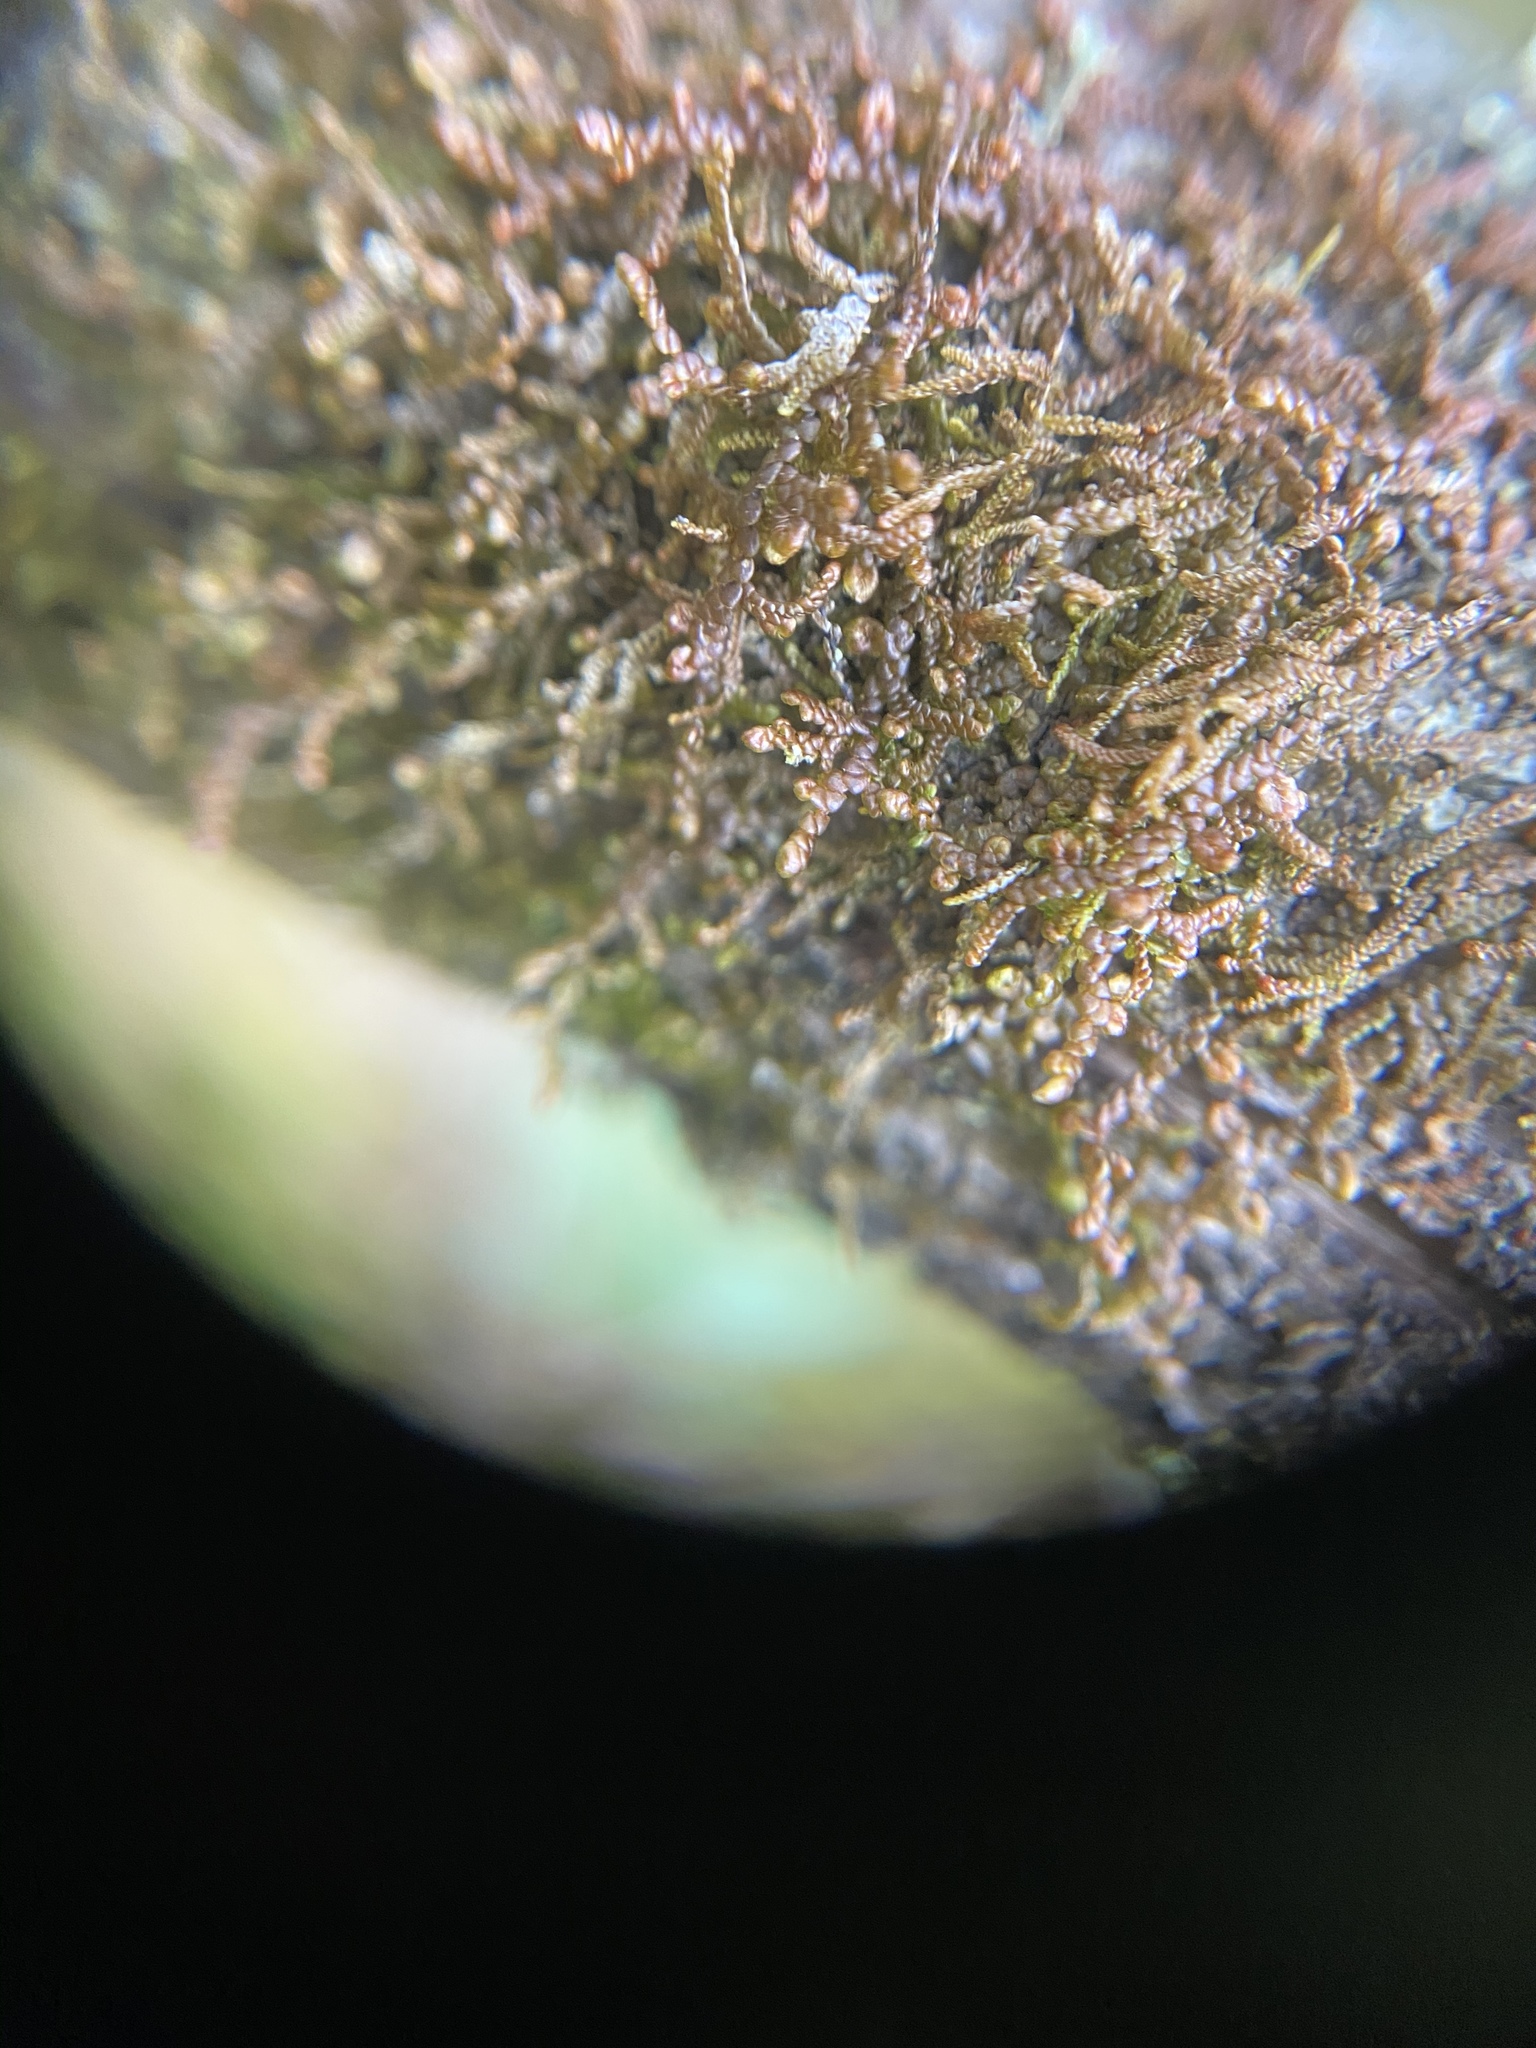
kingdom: Plantae
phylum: Marchantiophyta
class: Jungermanniopsida
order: Porellales
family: Frullaniaceae
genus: Frullania
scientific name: Frullania nisquallensis
